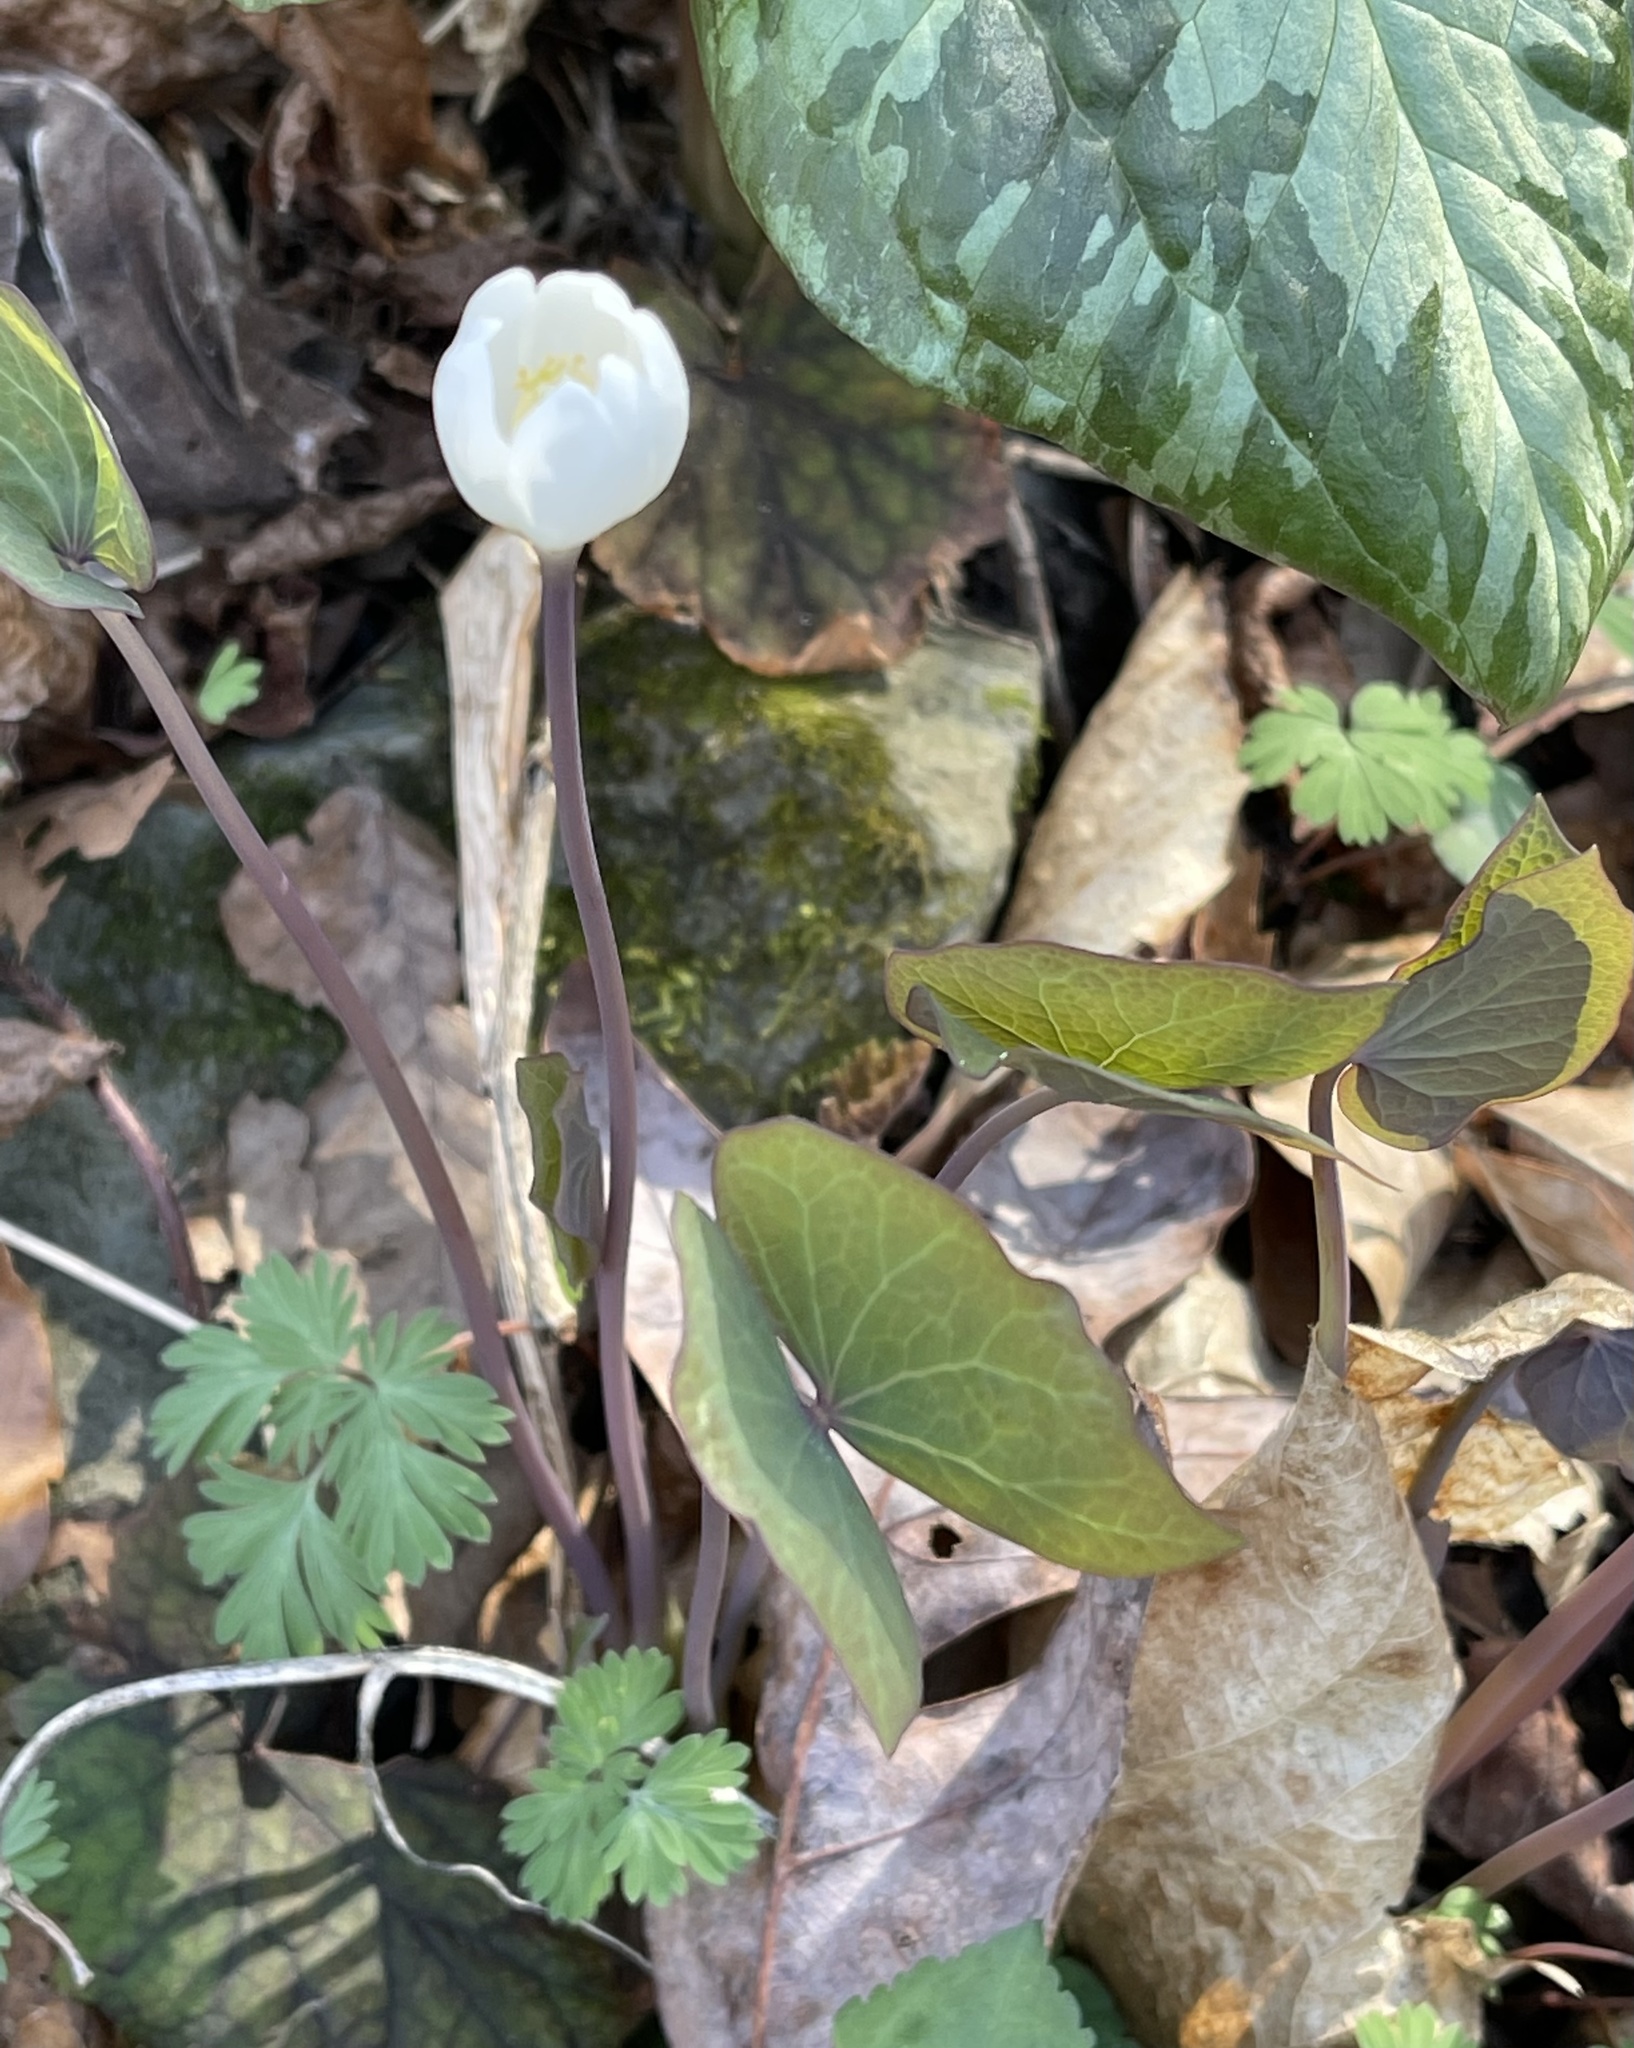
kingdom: Plantae
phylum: Tracheophyta
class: Magnoliopsida
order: Ranunculales
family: Berberidaceae
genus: Jeffersonia
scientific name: Jeffersonia diphylla
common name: Rheumatism-root
